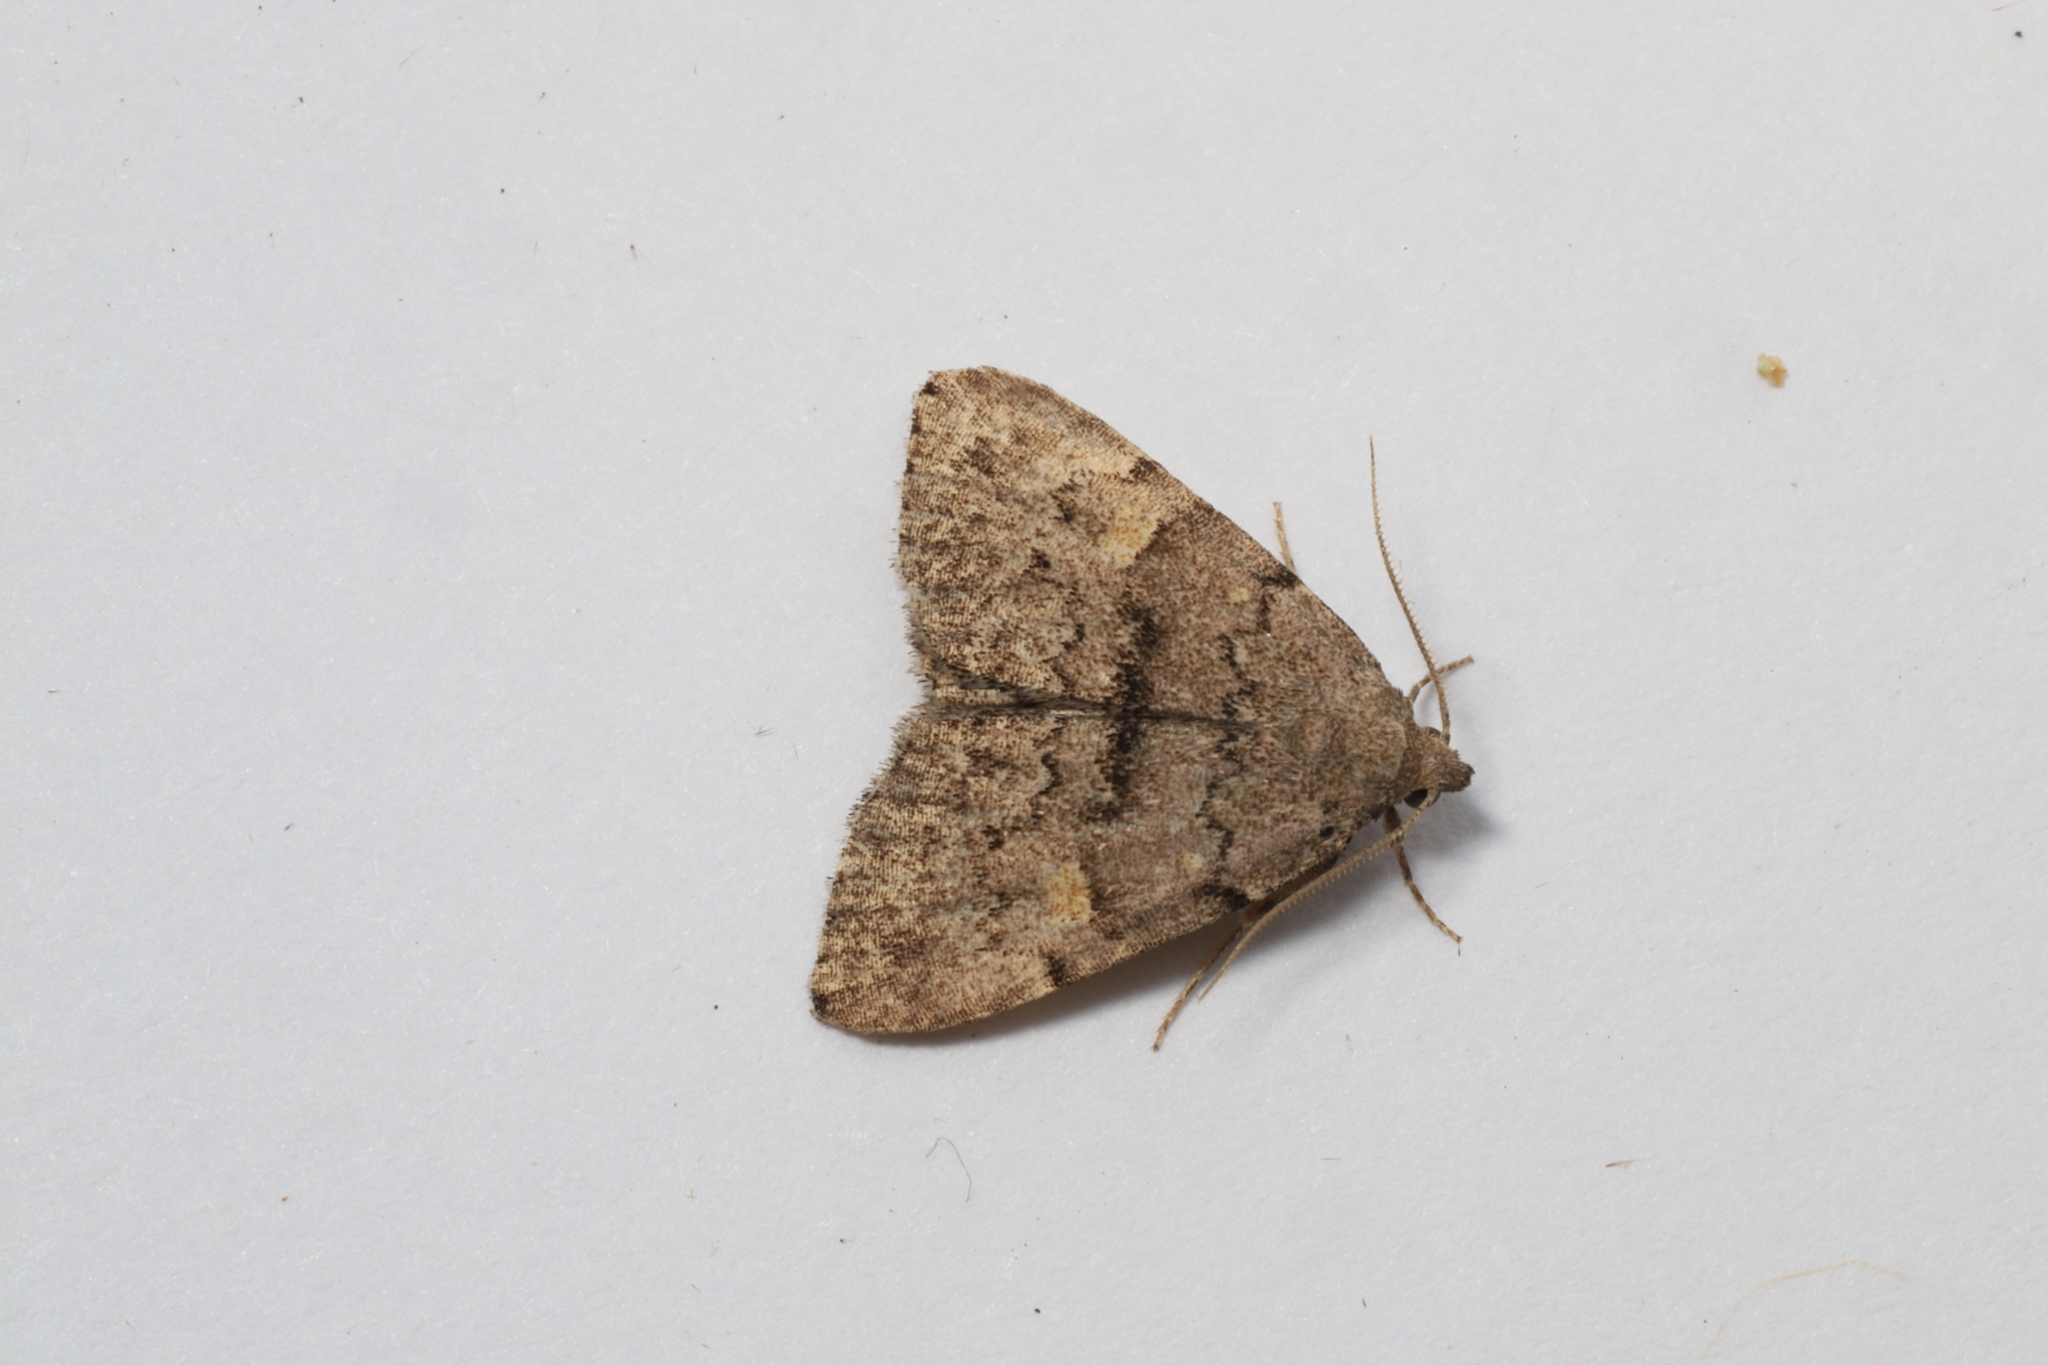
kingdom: Animalia
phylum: Arthropoda
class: Insecta
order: Lepidoptera
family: Erebidae
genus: Idia
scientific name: Idia aemula
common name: Common idia moth
